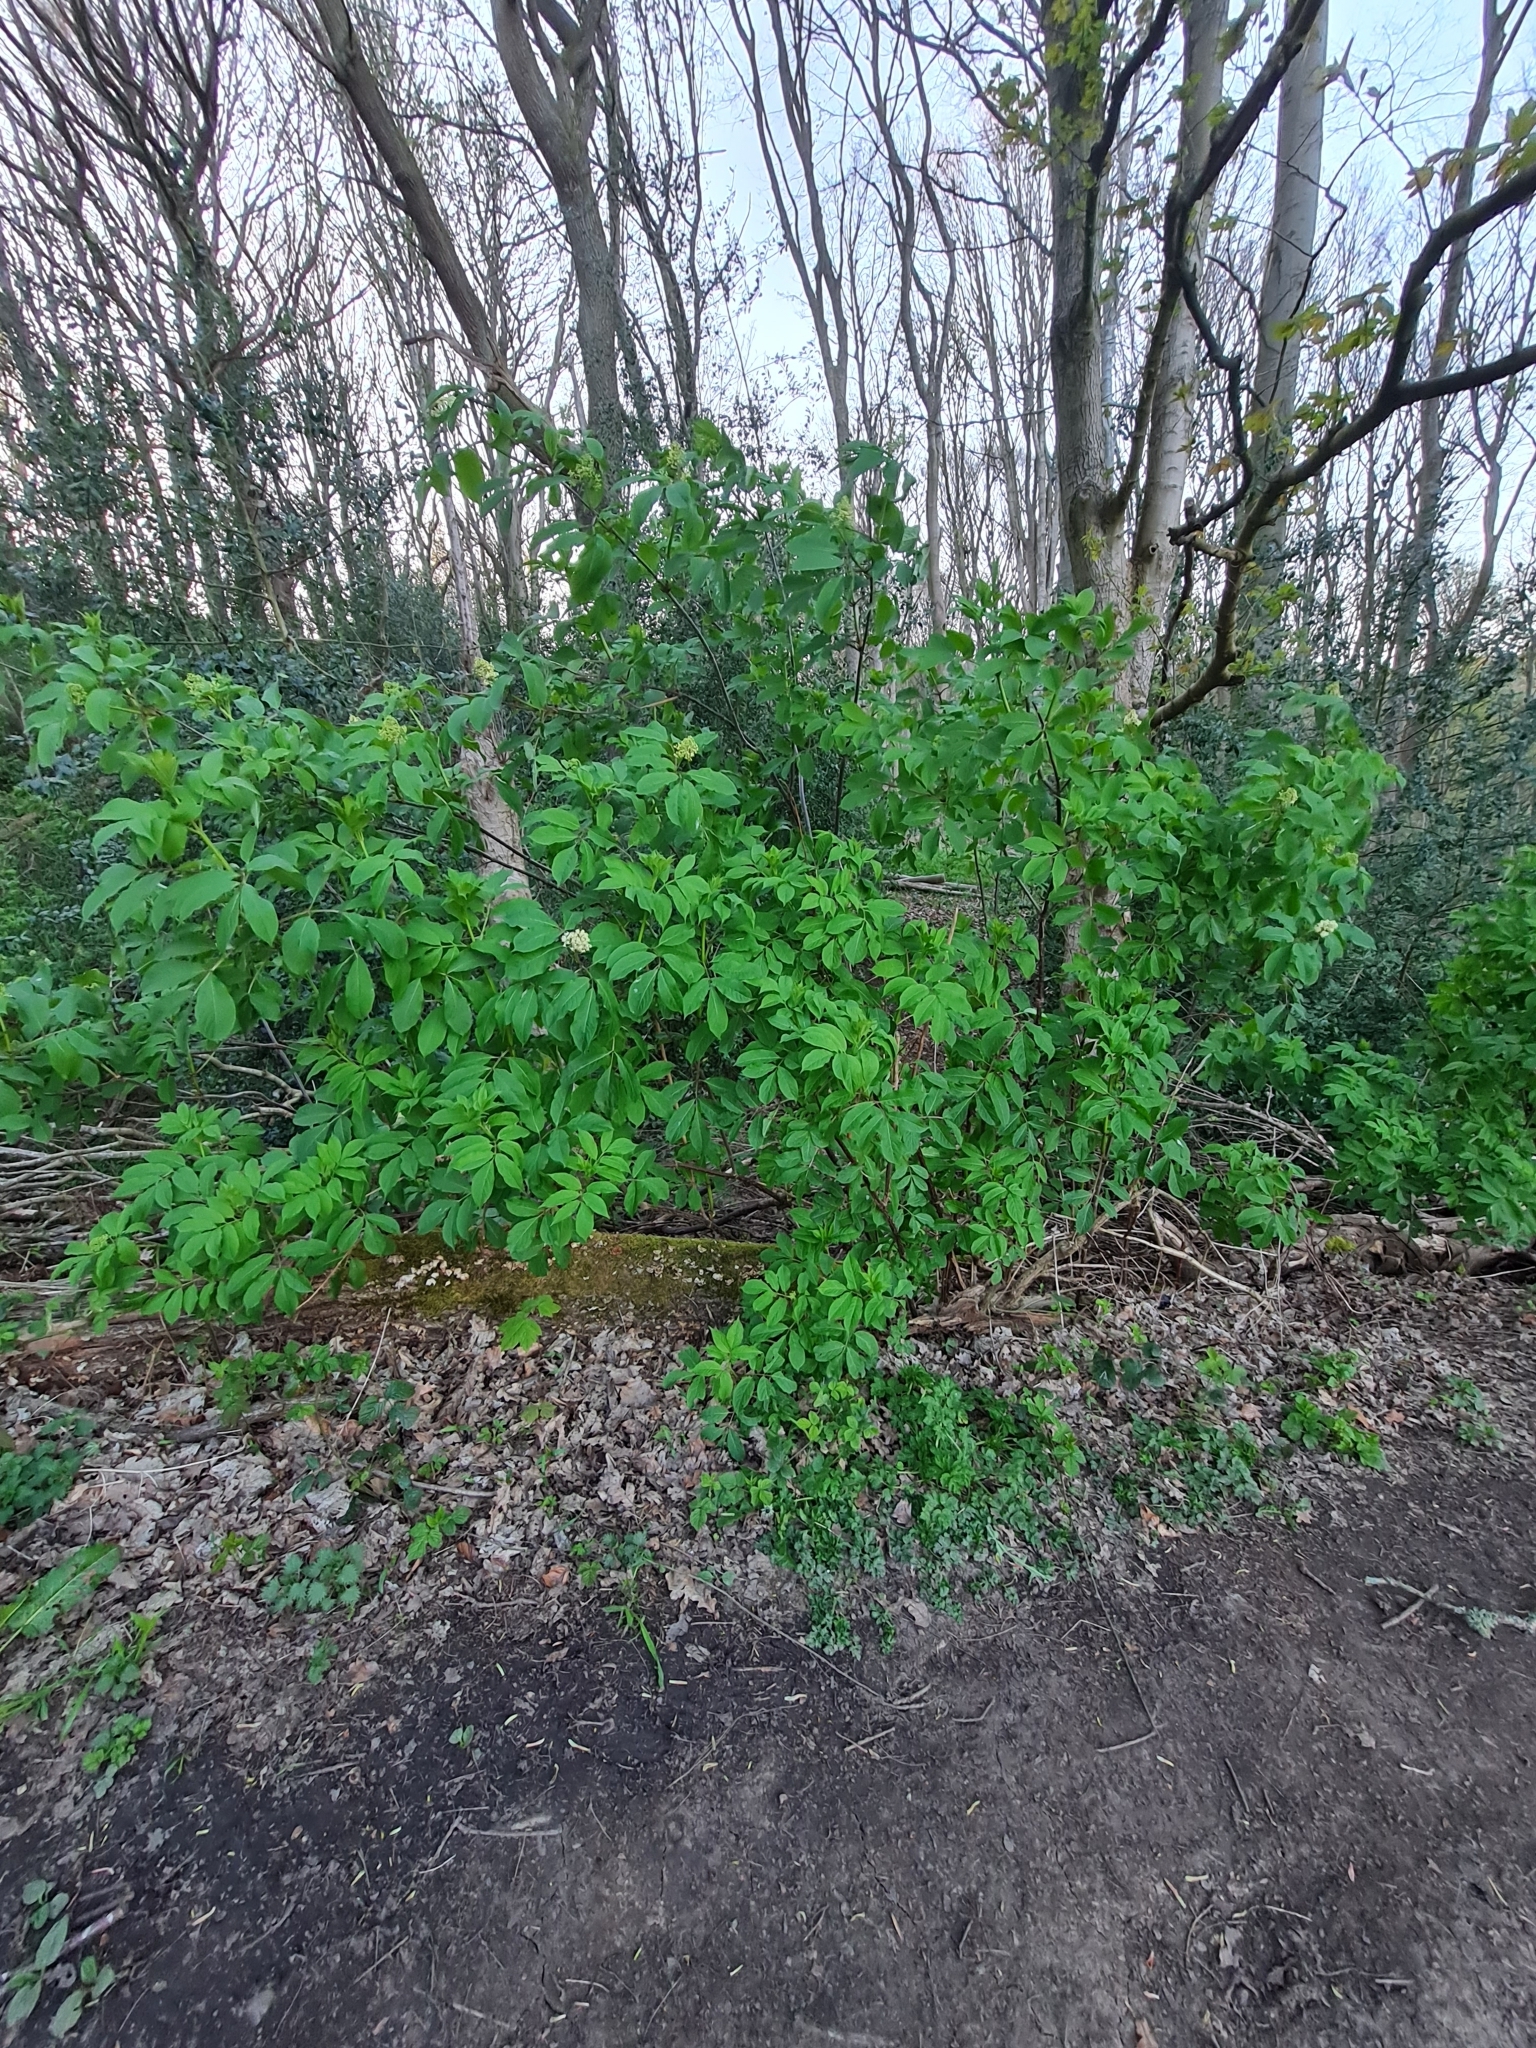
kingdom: Plantae
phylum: Tracheophyta
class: Magnoliopsida
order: Dipsacales
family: Viburnaceae
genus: Sambucus
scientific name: Sambucus racemosa
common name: Red-berried elder
